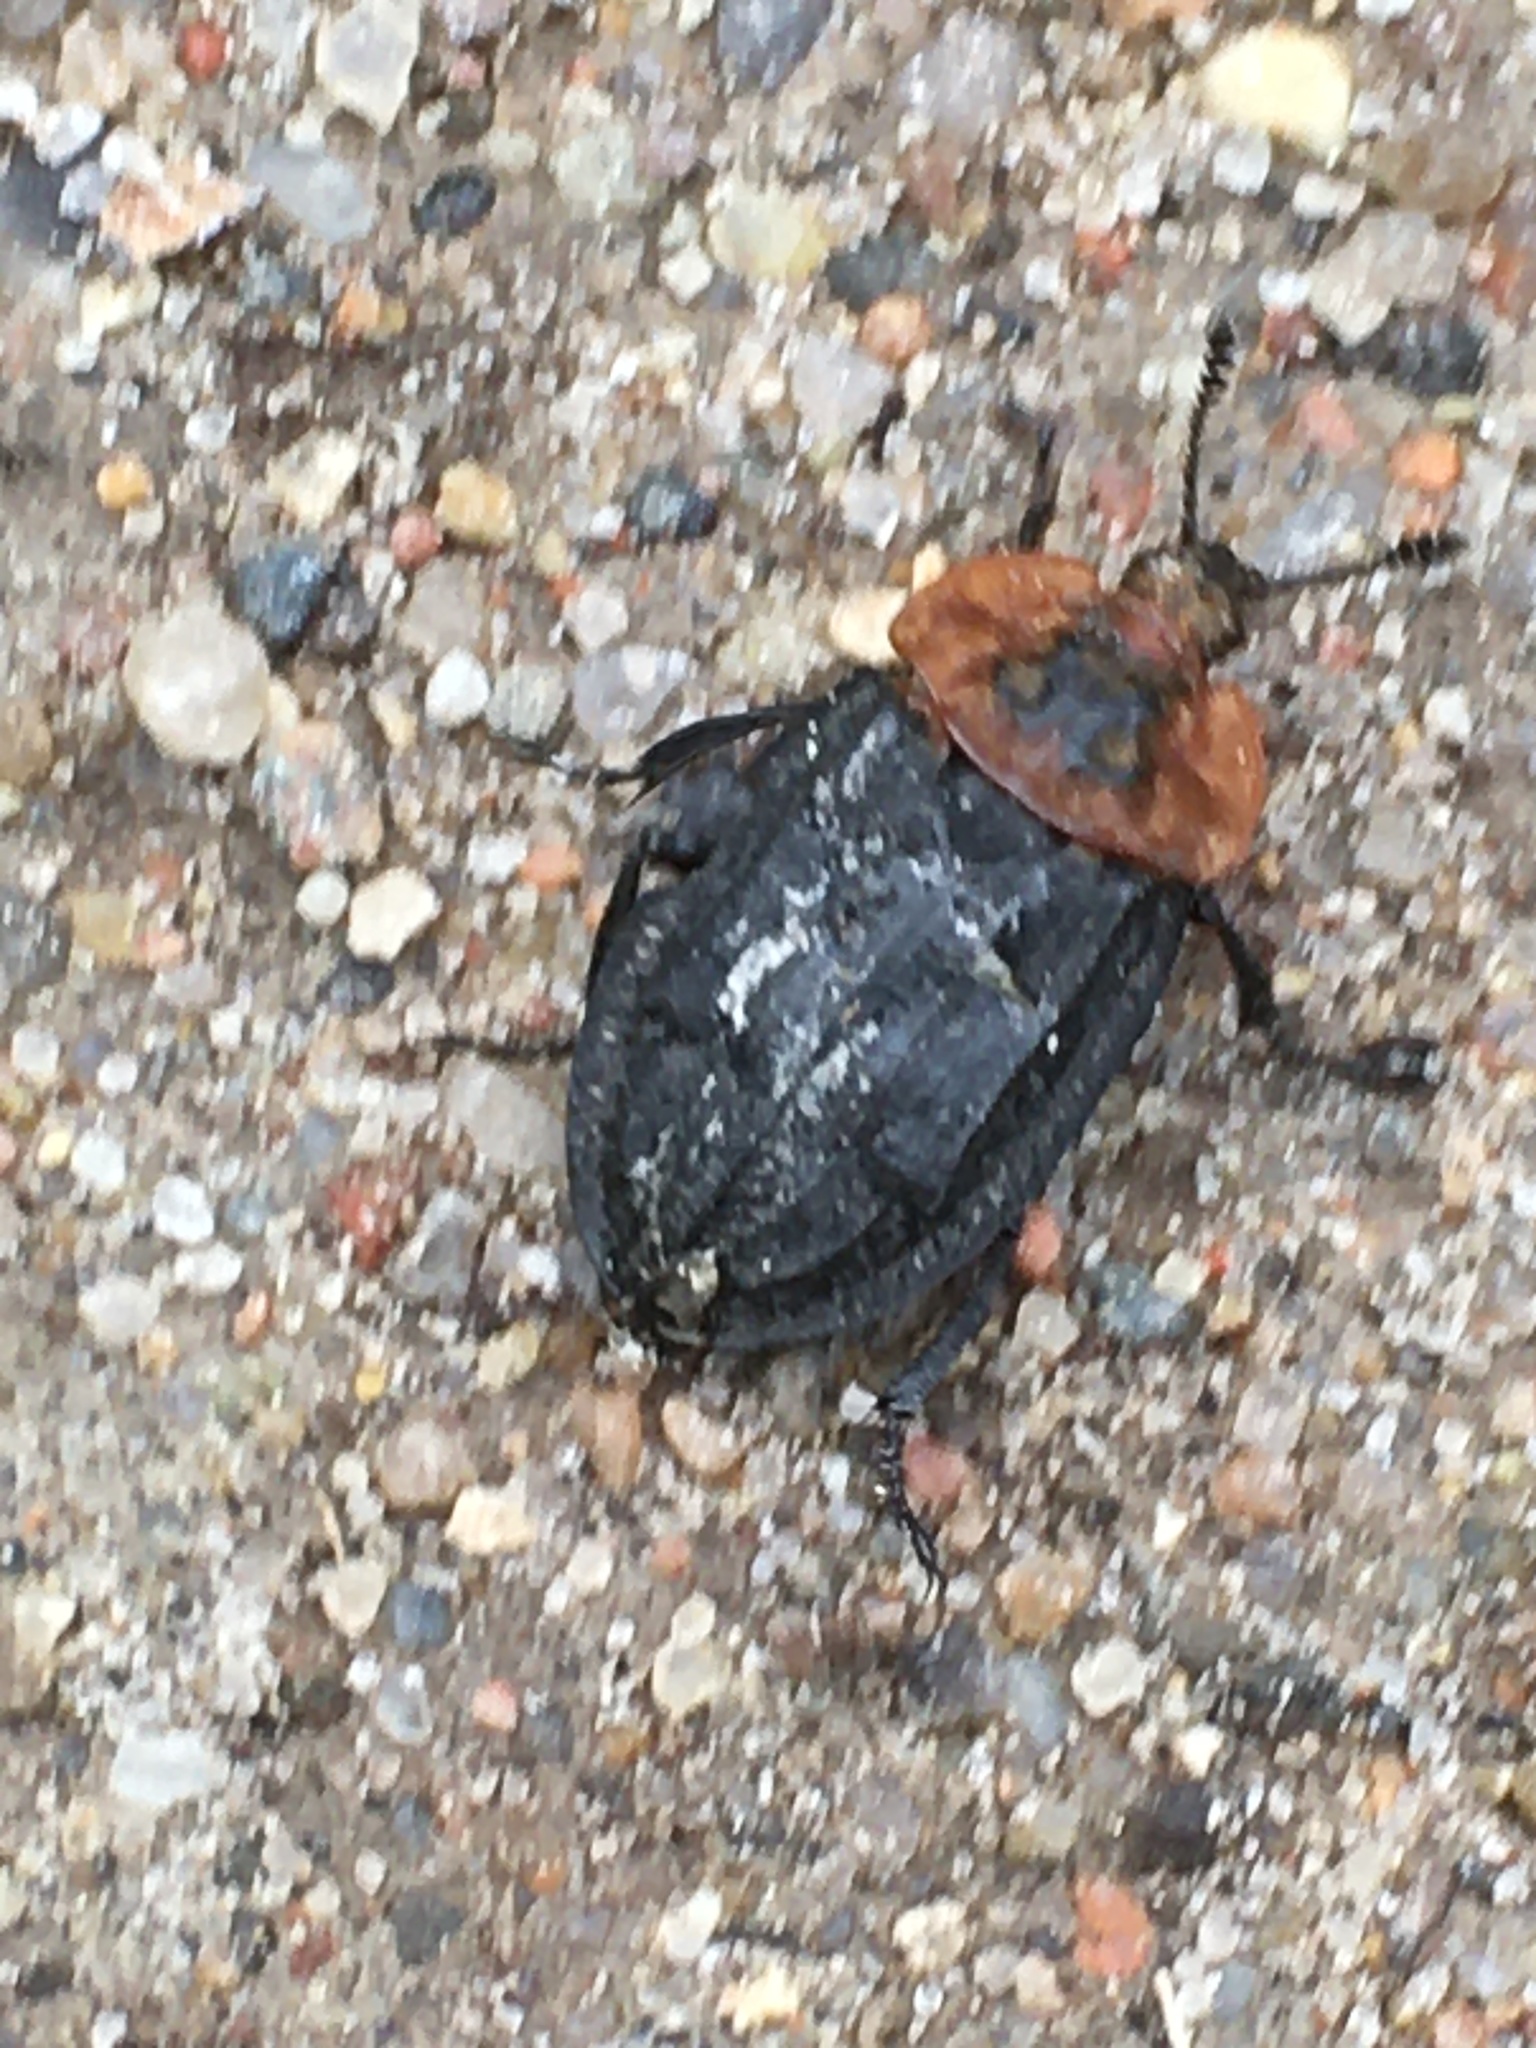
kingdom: Animalia
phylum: Arthropoda
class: Insecta
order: Coleoptera
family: Staphylinidae
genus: Oiceoptoma
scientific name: Oiceoptoma thoracicum
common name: Red-breasted carrion beetle
